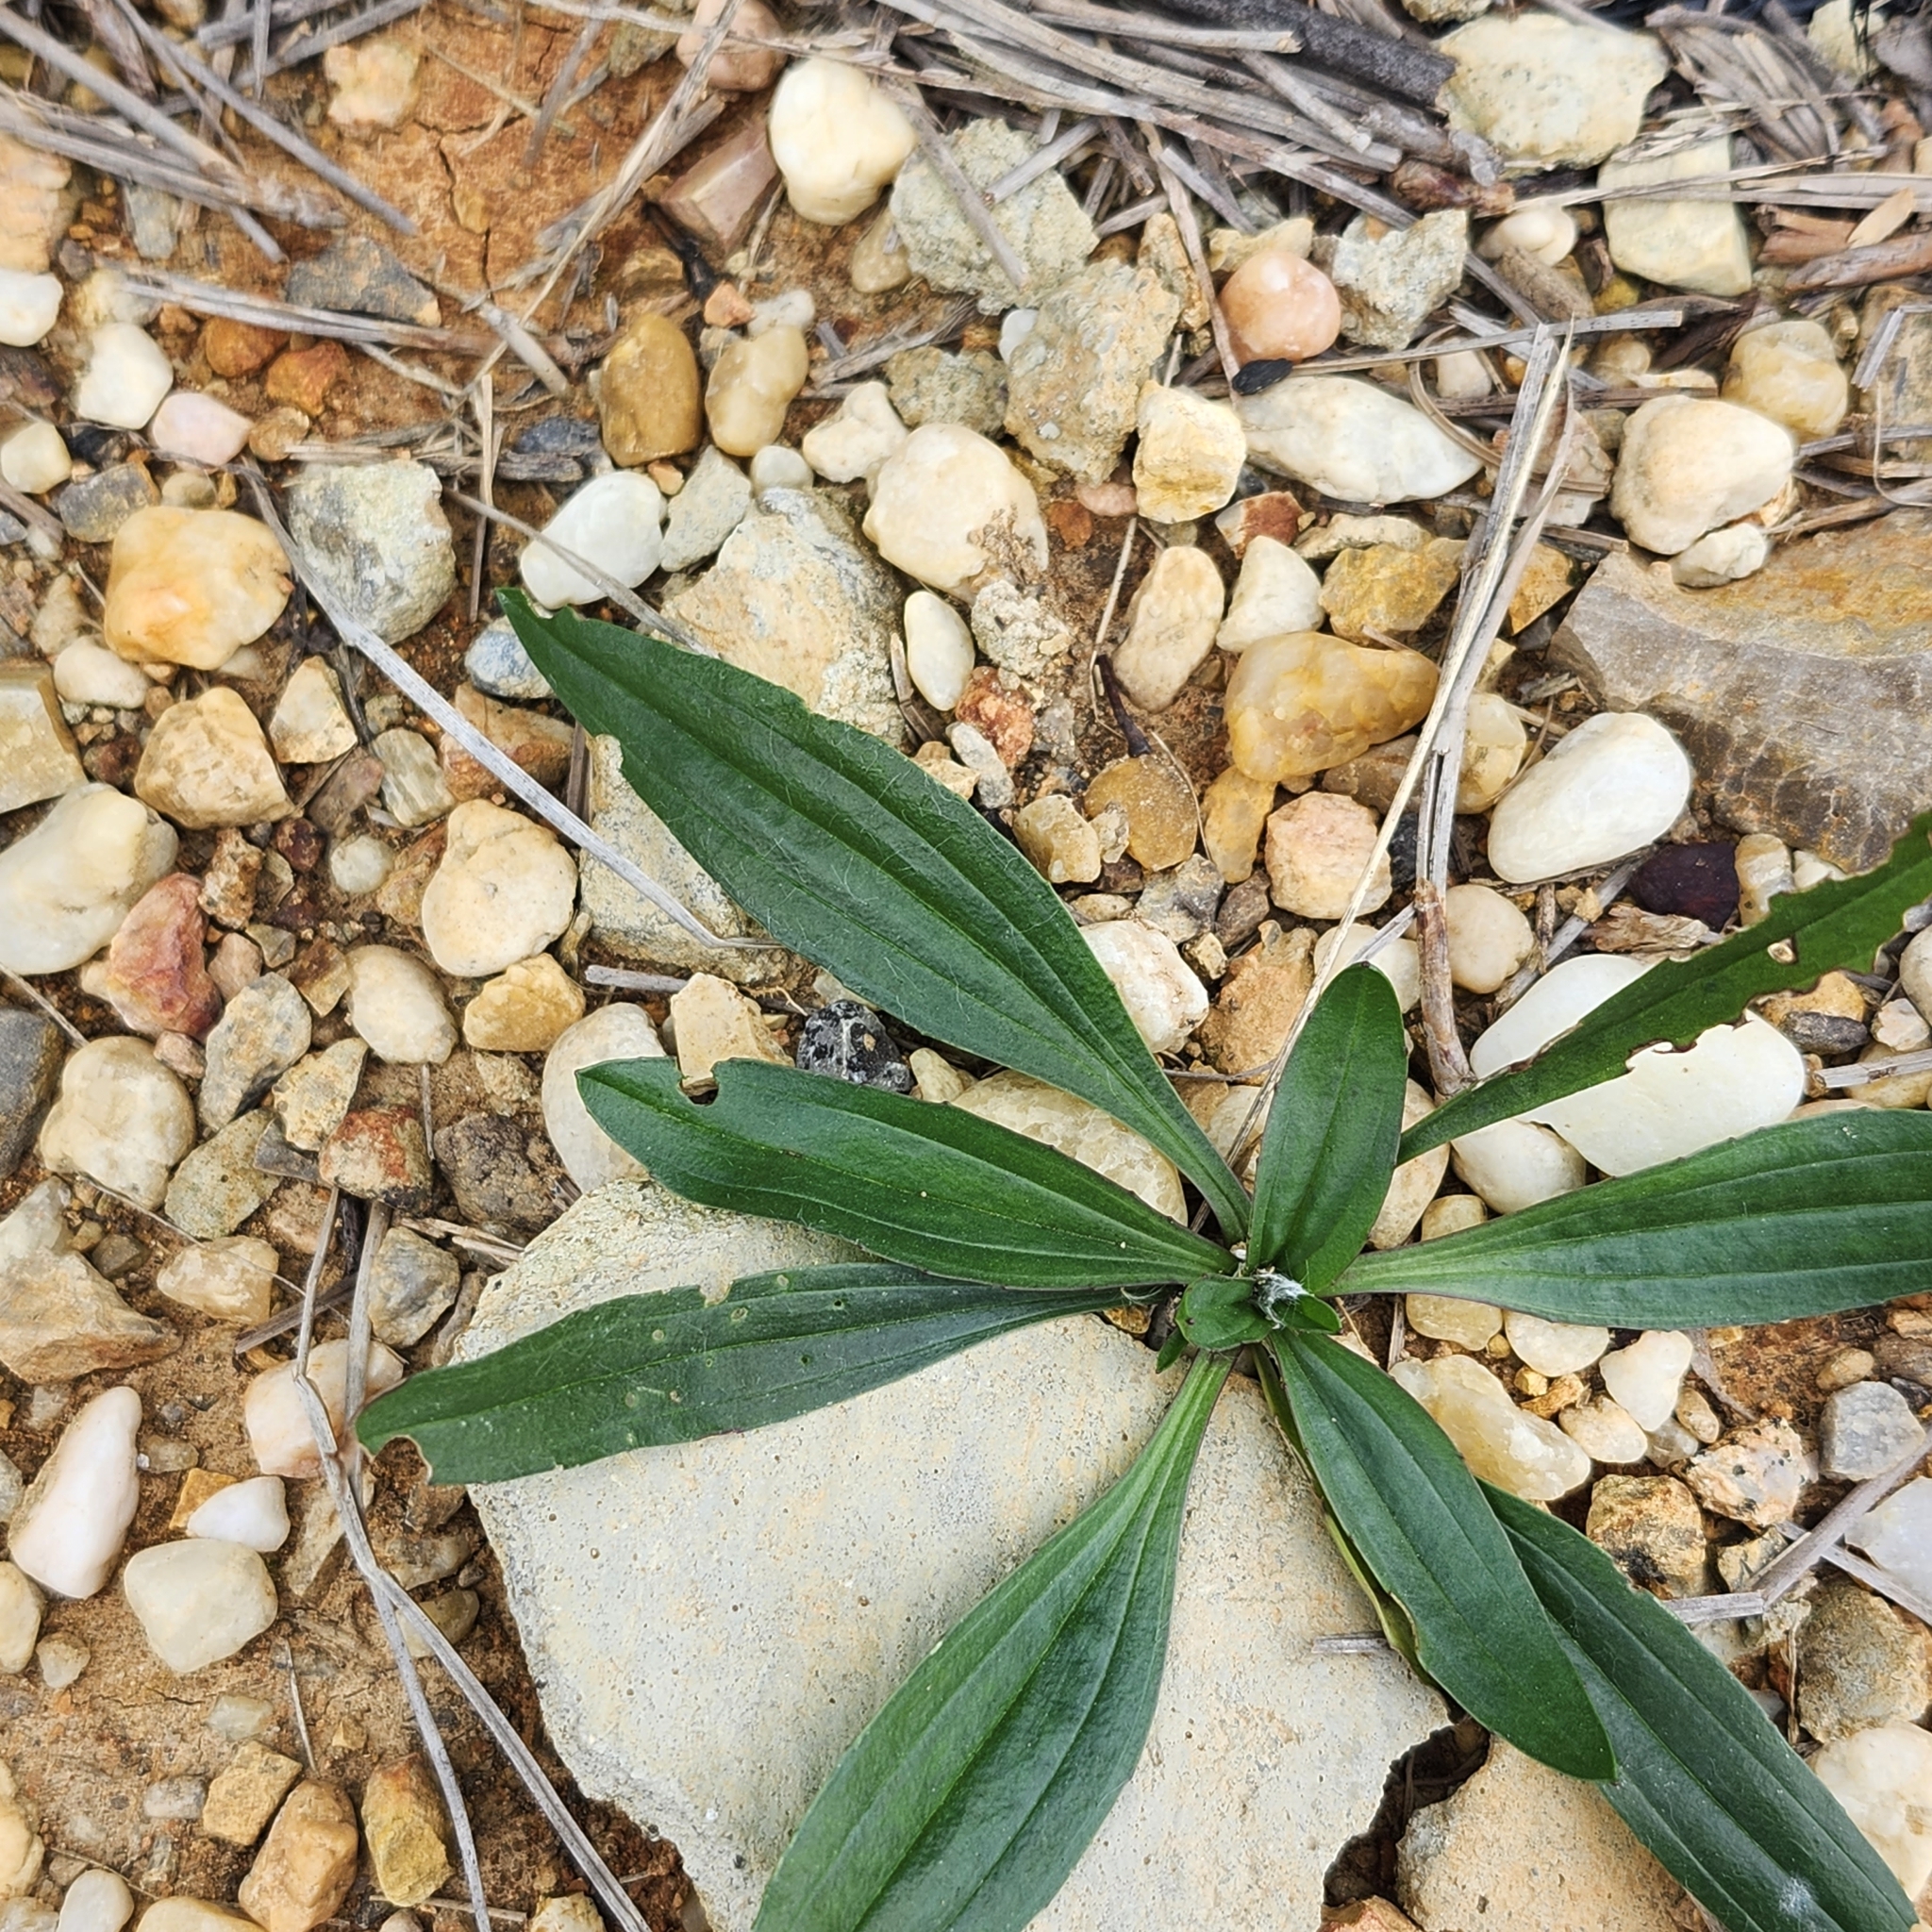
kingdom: Plantae
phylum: Tracheophyta
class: Magnoliopsida
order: Lamiales
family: Plantaginaceae
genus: Plantago
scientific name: Plantago lanceolata
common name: Ribwort plantain
